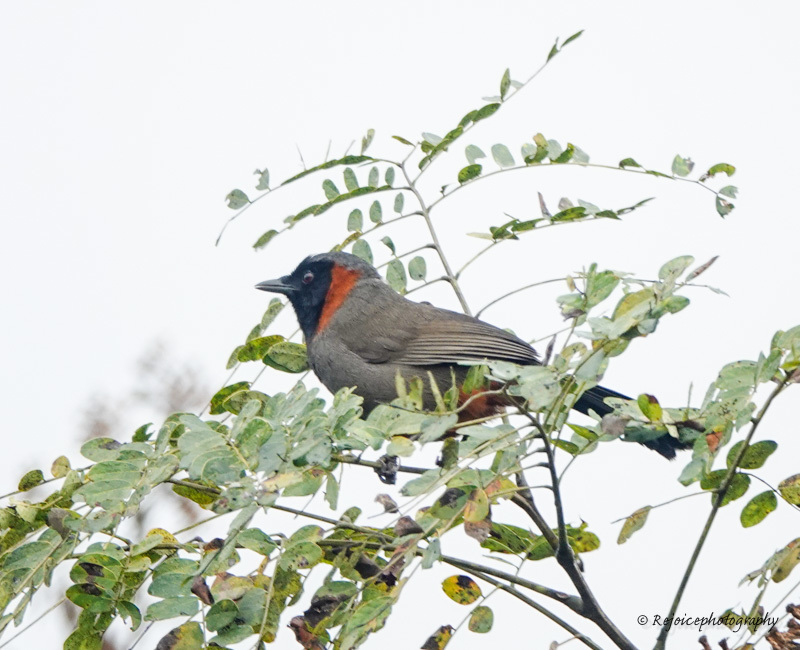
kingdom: Animalia
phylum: Chordata
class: Aves
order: Passeriformes
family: Leiothrichidae
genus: Garrulax
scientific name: Garrulax ruficollis
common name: Rufous-necked laughingthrush
